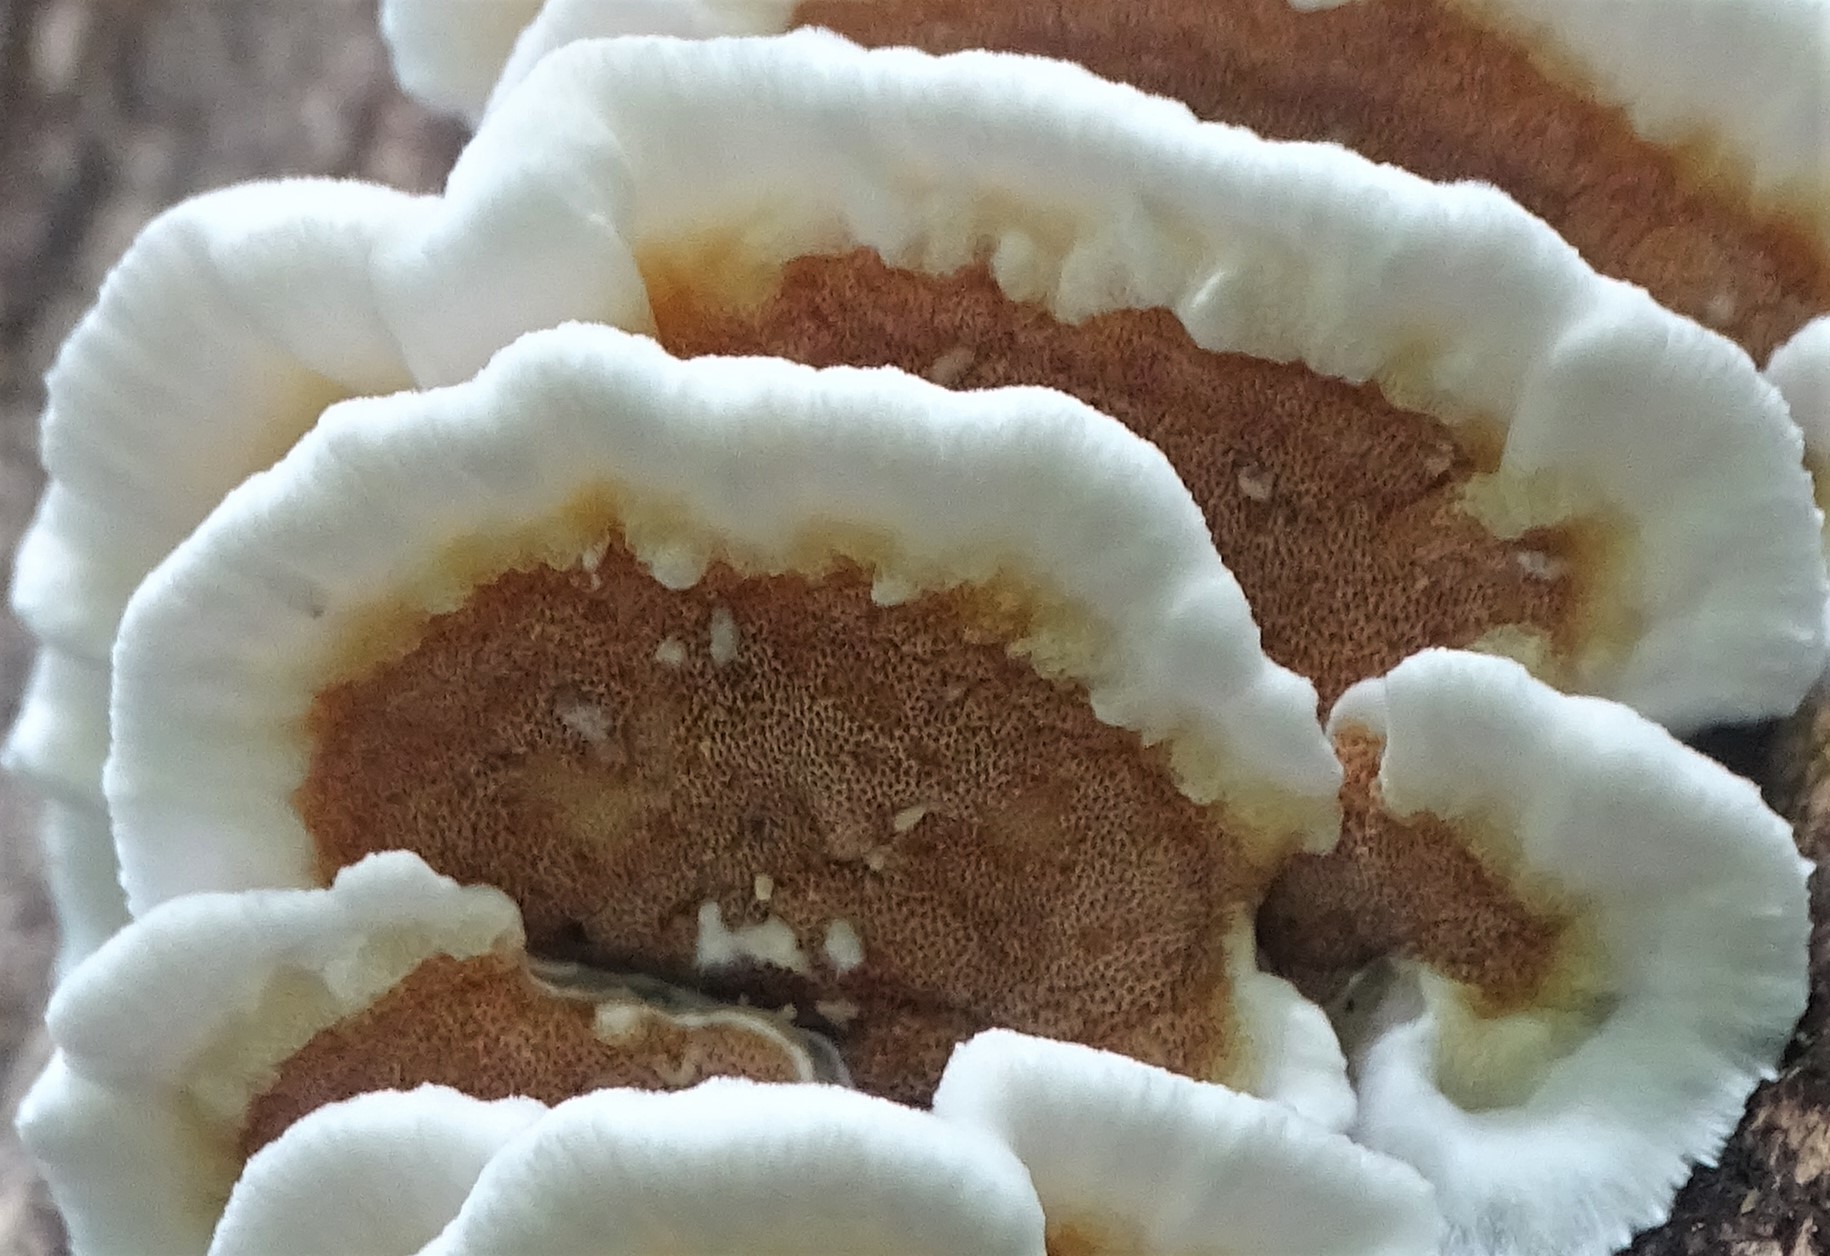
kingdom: Fungi
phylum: Basidiomycota
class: Agaricomycetes
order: Polyporales
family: Irpicaceae
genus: Vitreoporus
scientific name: Vitreoporus dichrous
